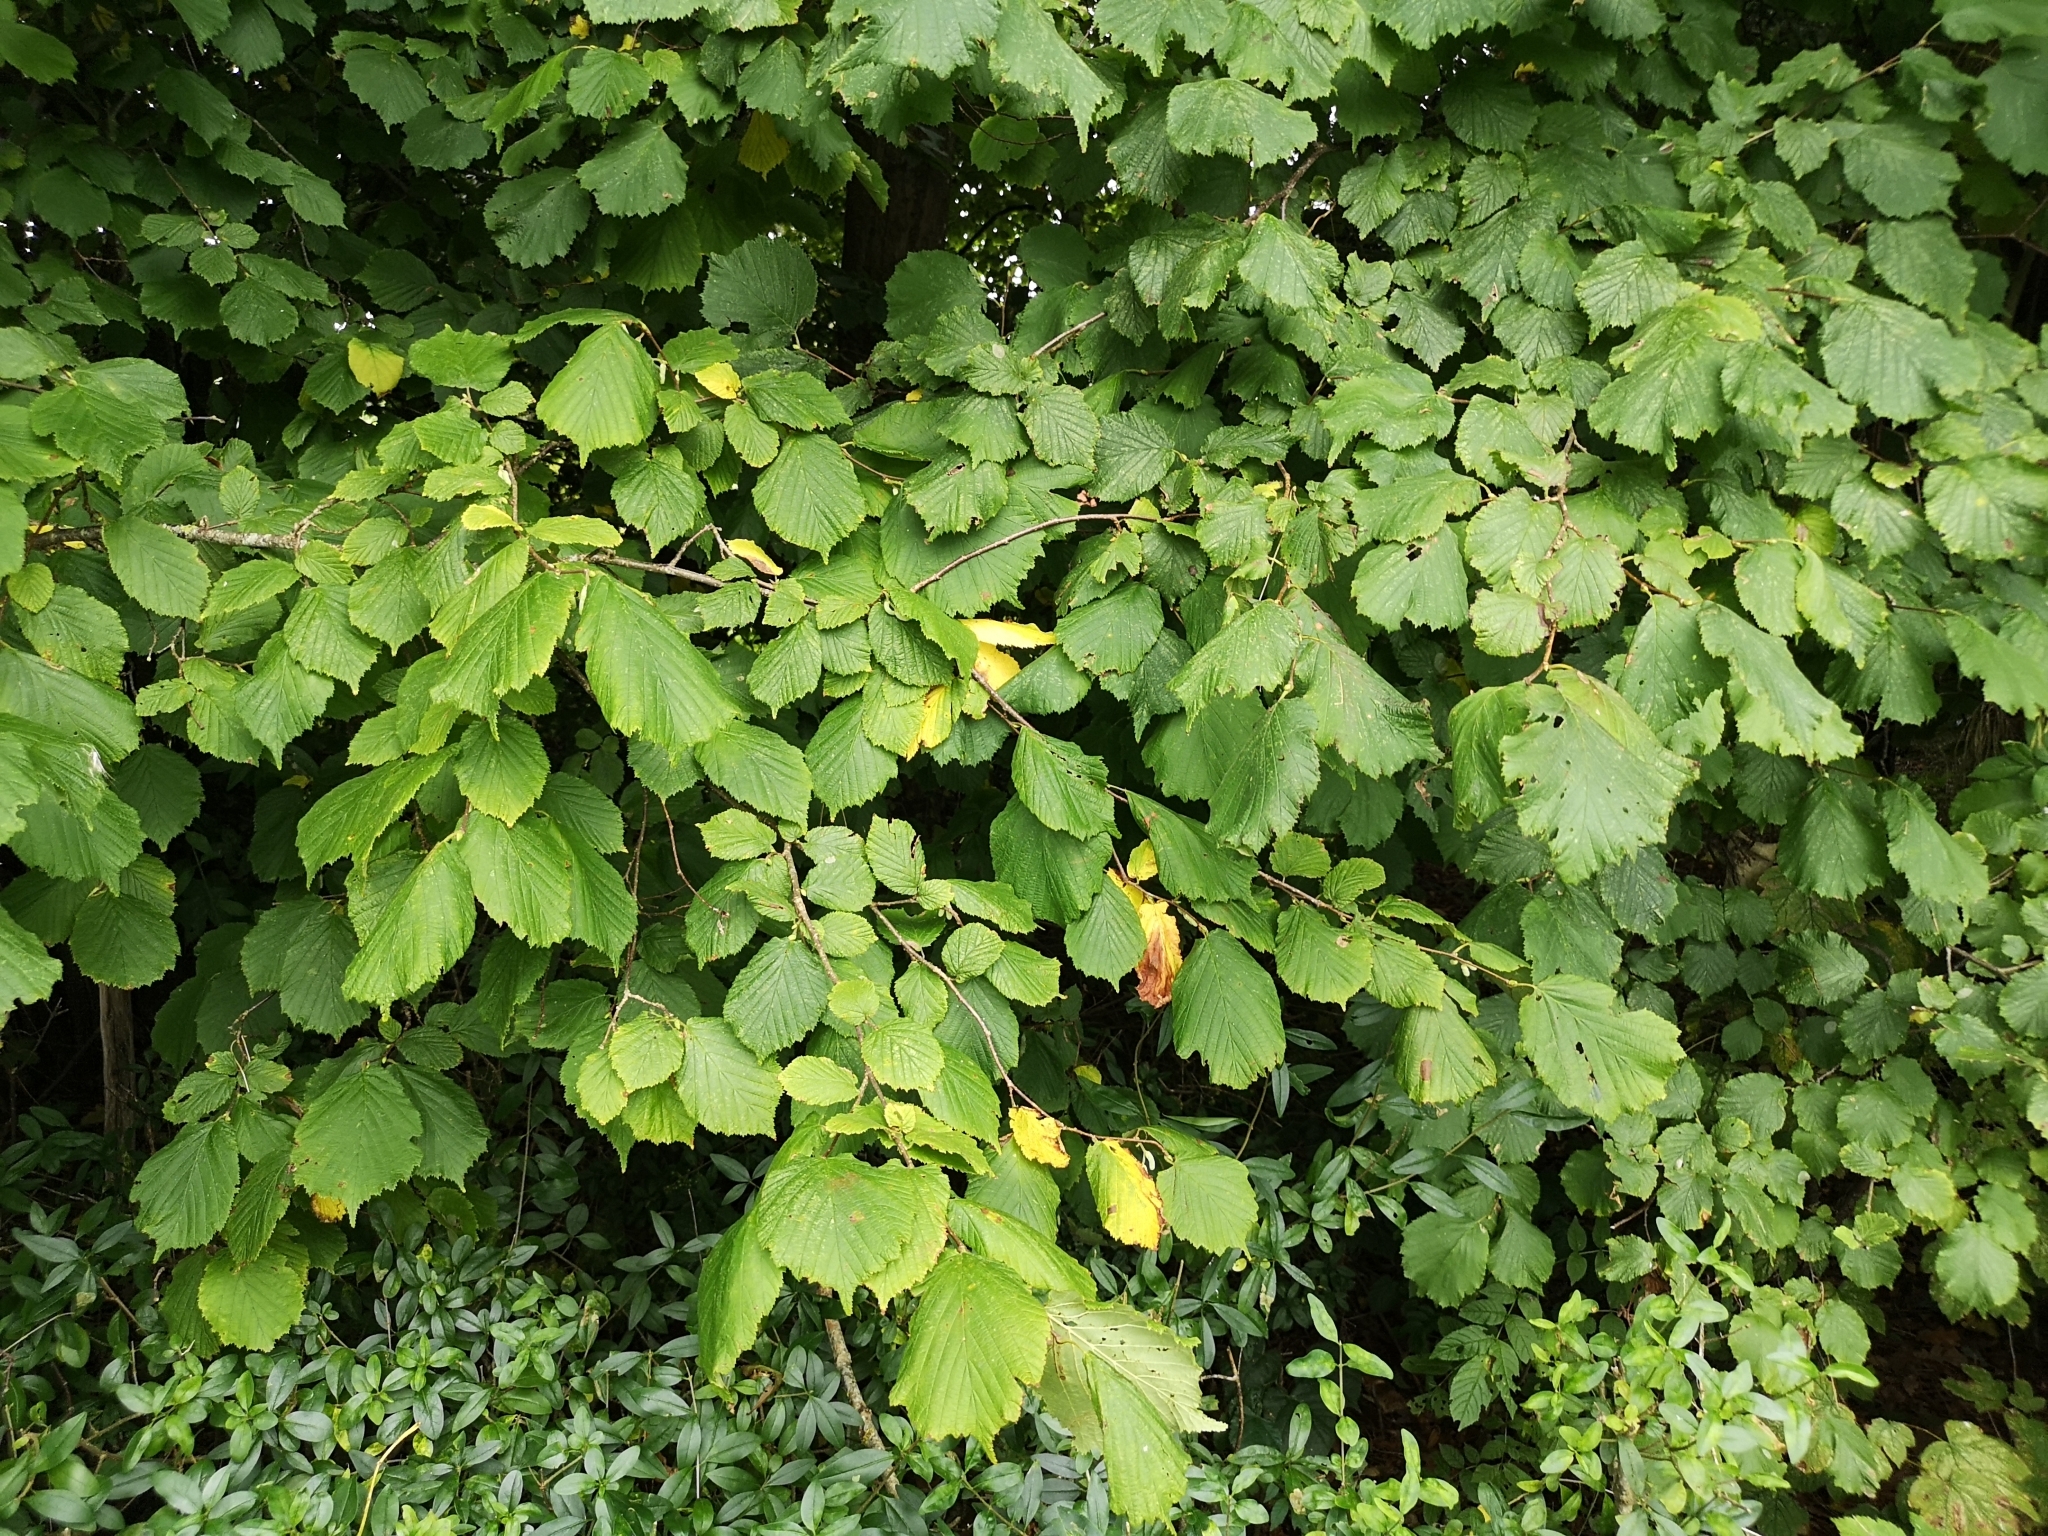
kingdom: Plantae
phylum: Tracheophyta
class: Magnoliopsida
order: Fagales
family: Betulaceae
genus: Corylus
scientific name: Corylus avellana
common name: European hazel
